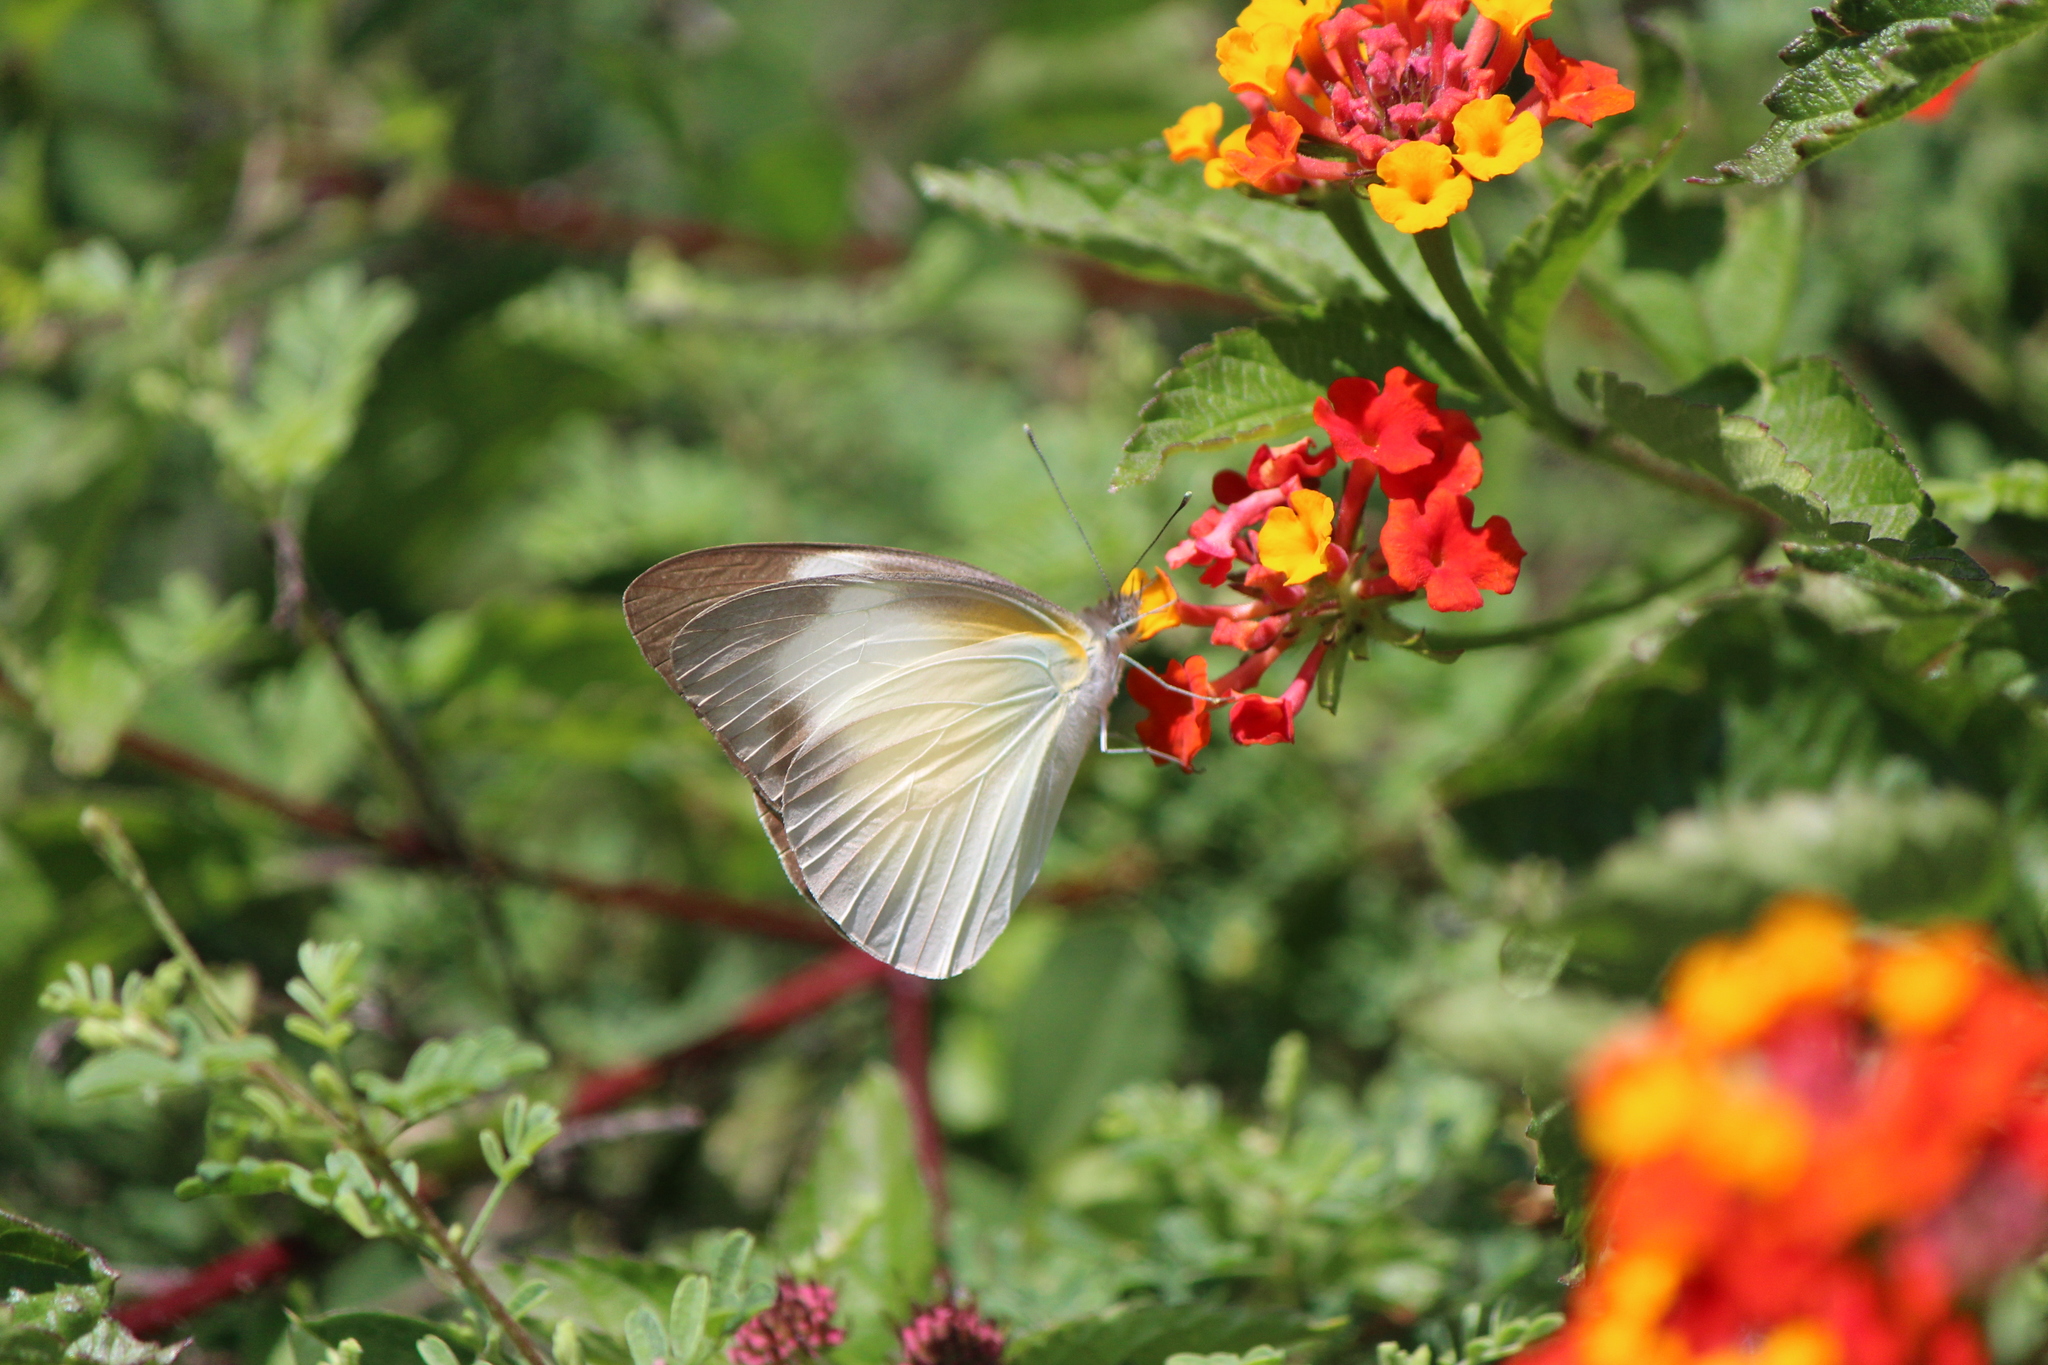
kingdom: Animalia
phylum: Arthropoda
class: Insecta
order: Lepidoptera
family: Pieridae
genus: Glutophrissa
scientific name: Glutophrissa drusilla
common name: Florida white
